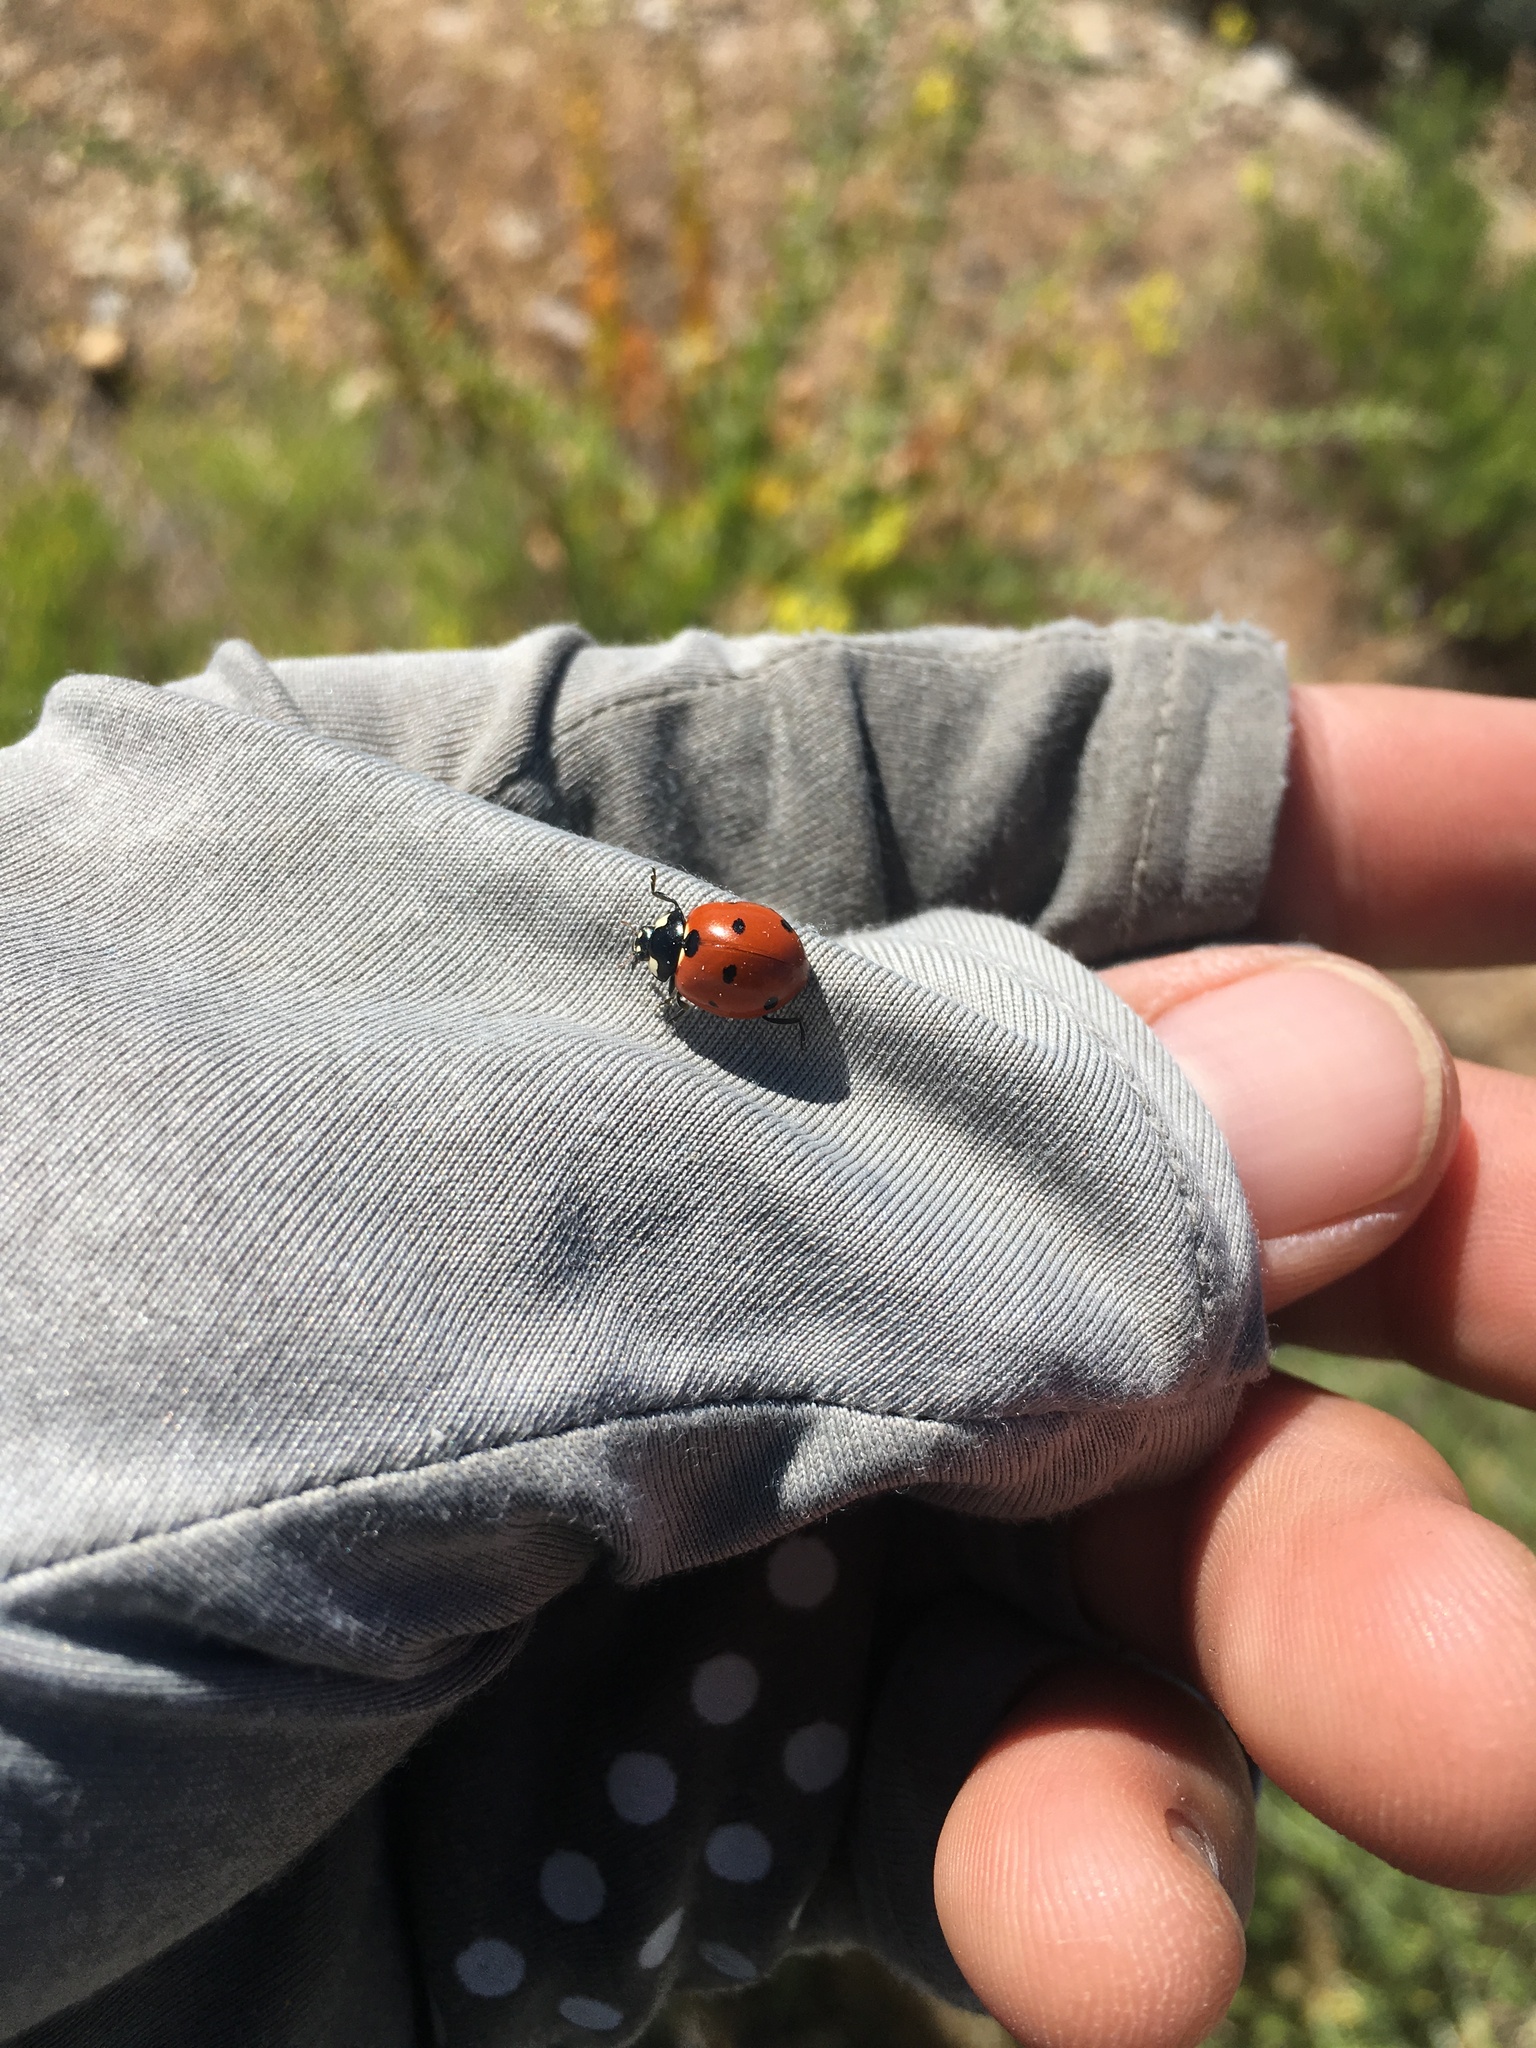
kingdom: Animalia
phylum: Arthropoda
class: Insecta
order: Coleoptera
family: Coccinellidae
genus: Coccinella
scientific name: Coccinella septempunctata
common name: Sevenspotted lady beetle
